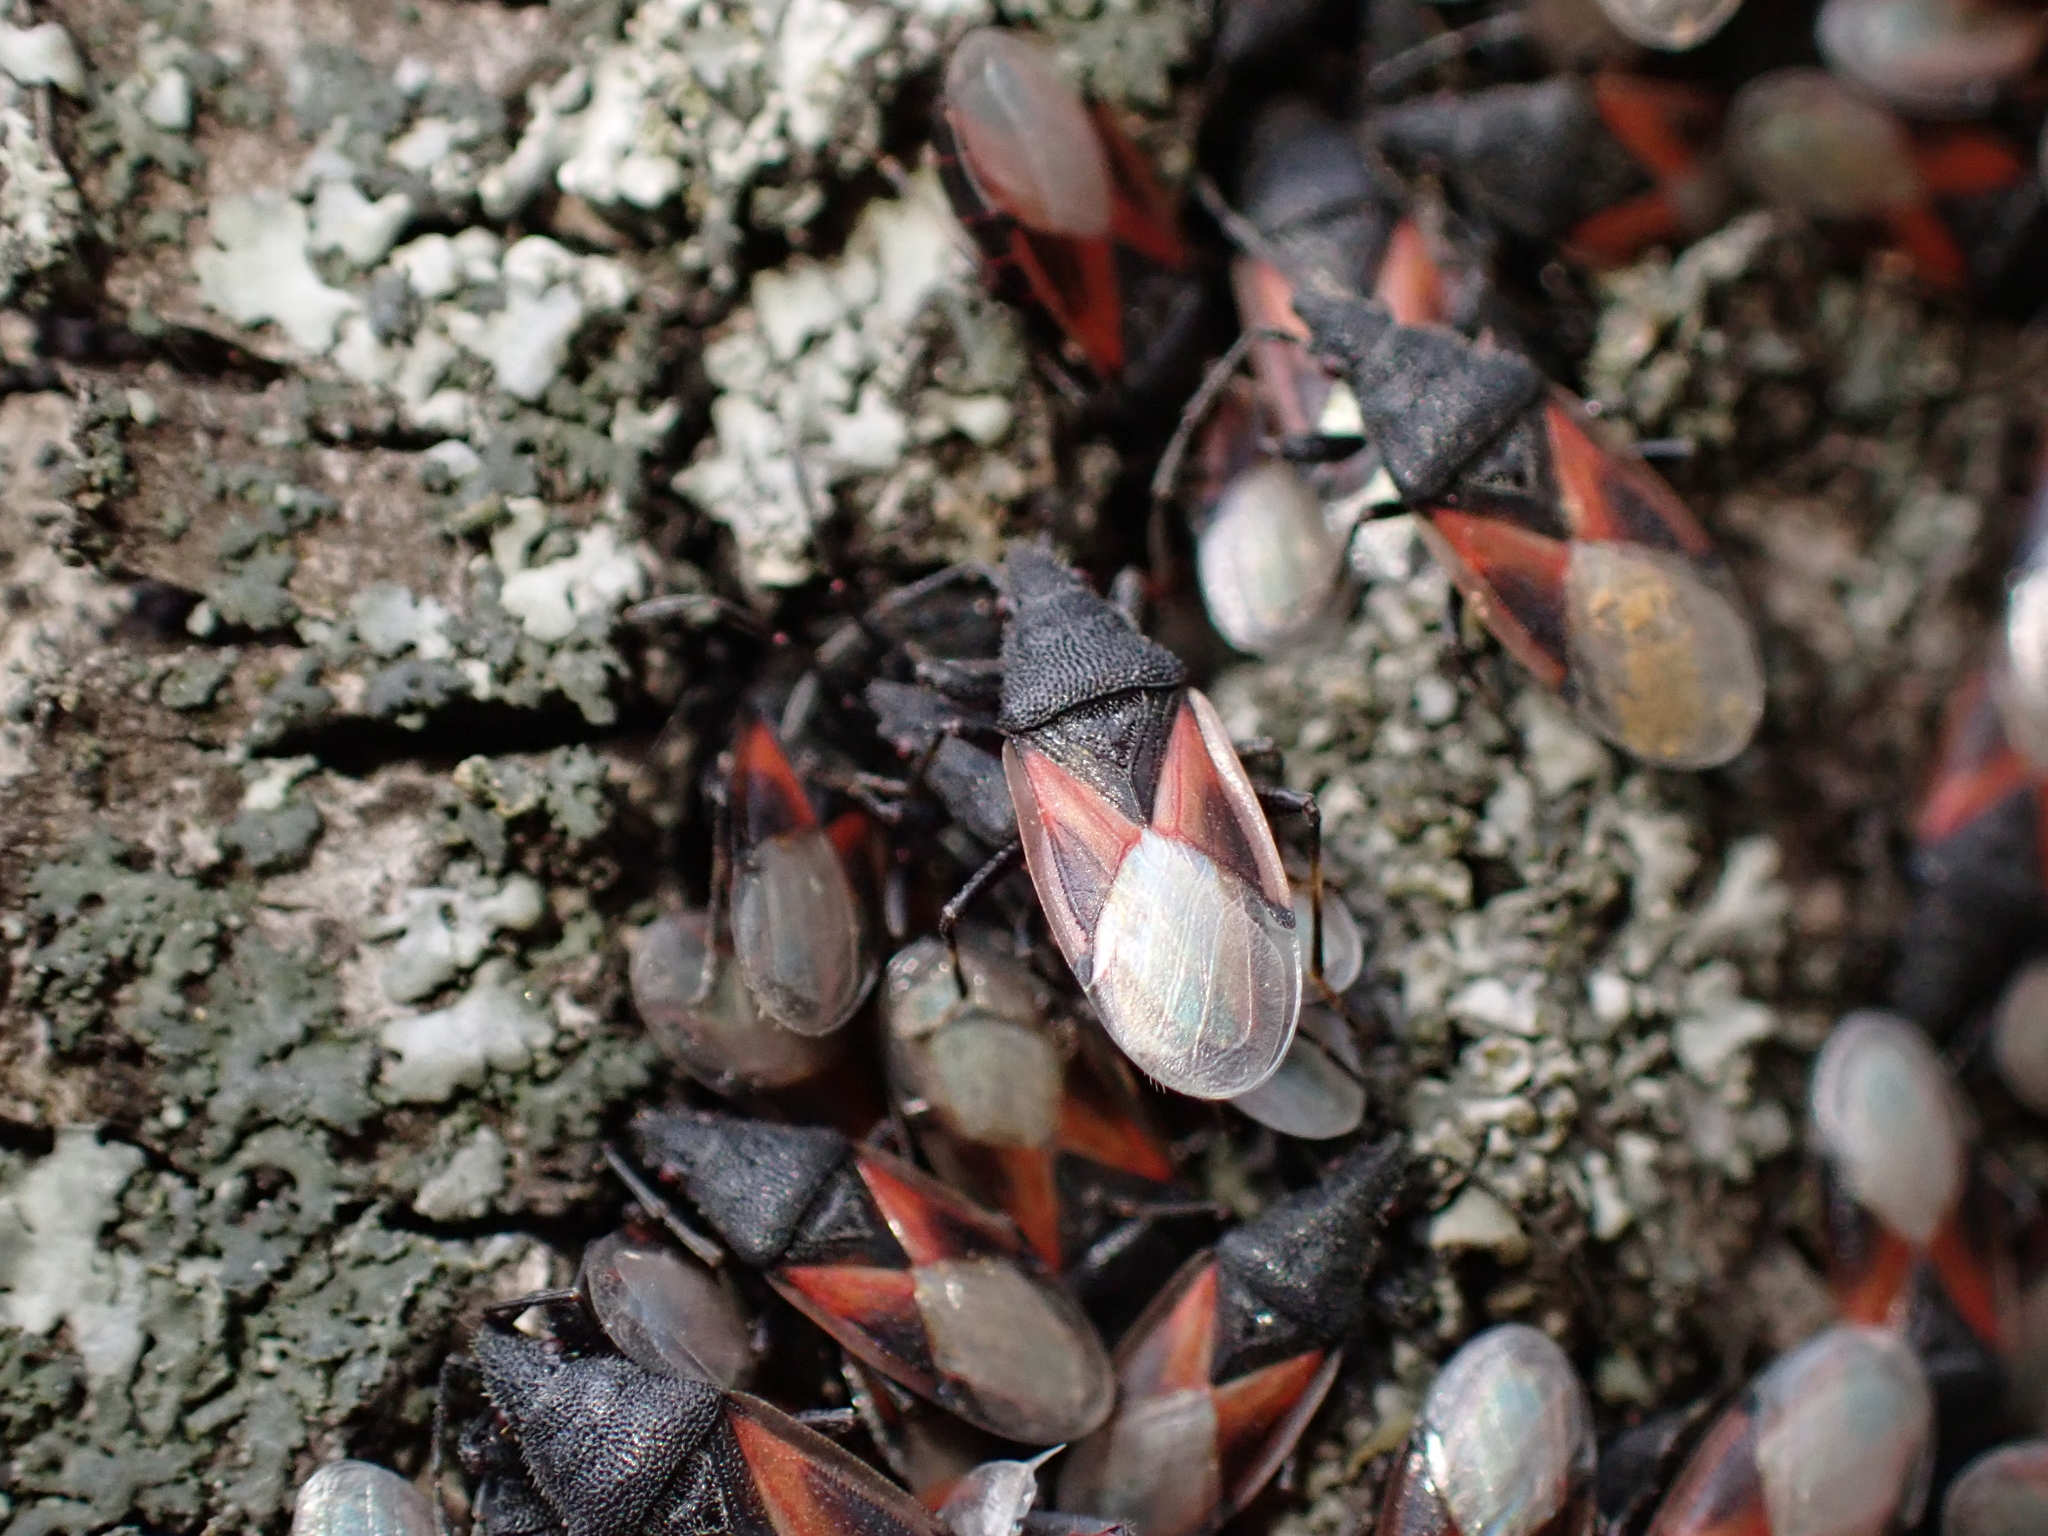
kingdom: Animalia
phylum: Arthropoda
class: Insecta
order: Hemiptera
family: Oxycarenidae
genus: Oxycarenus
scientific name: Oxycarenus lavaterae
